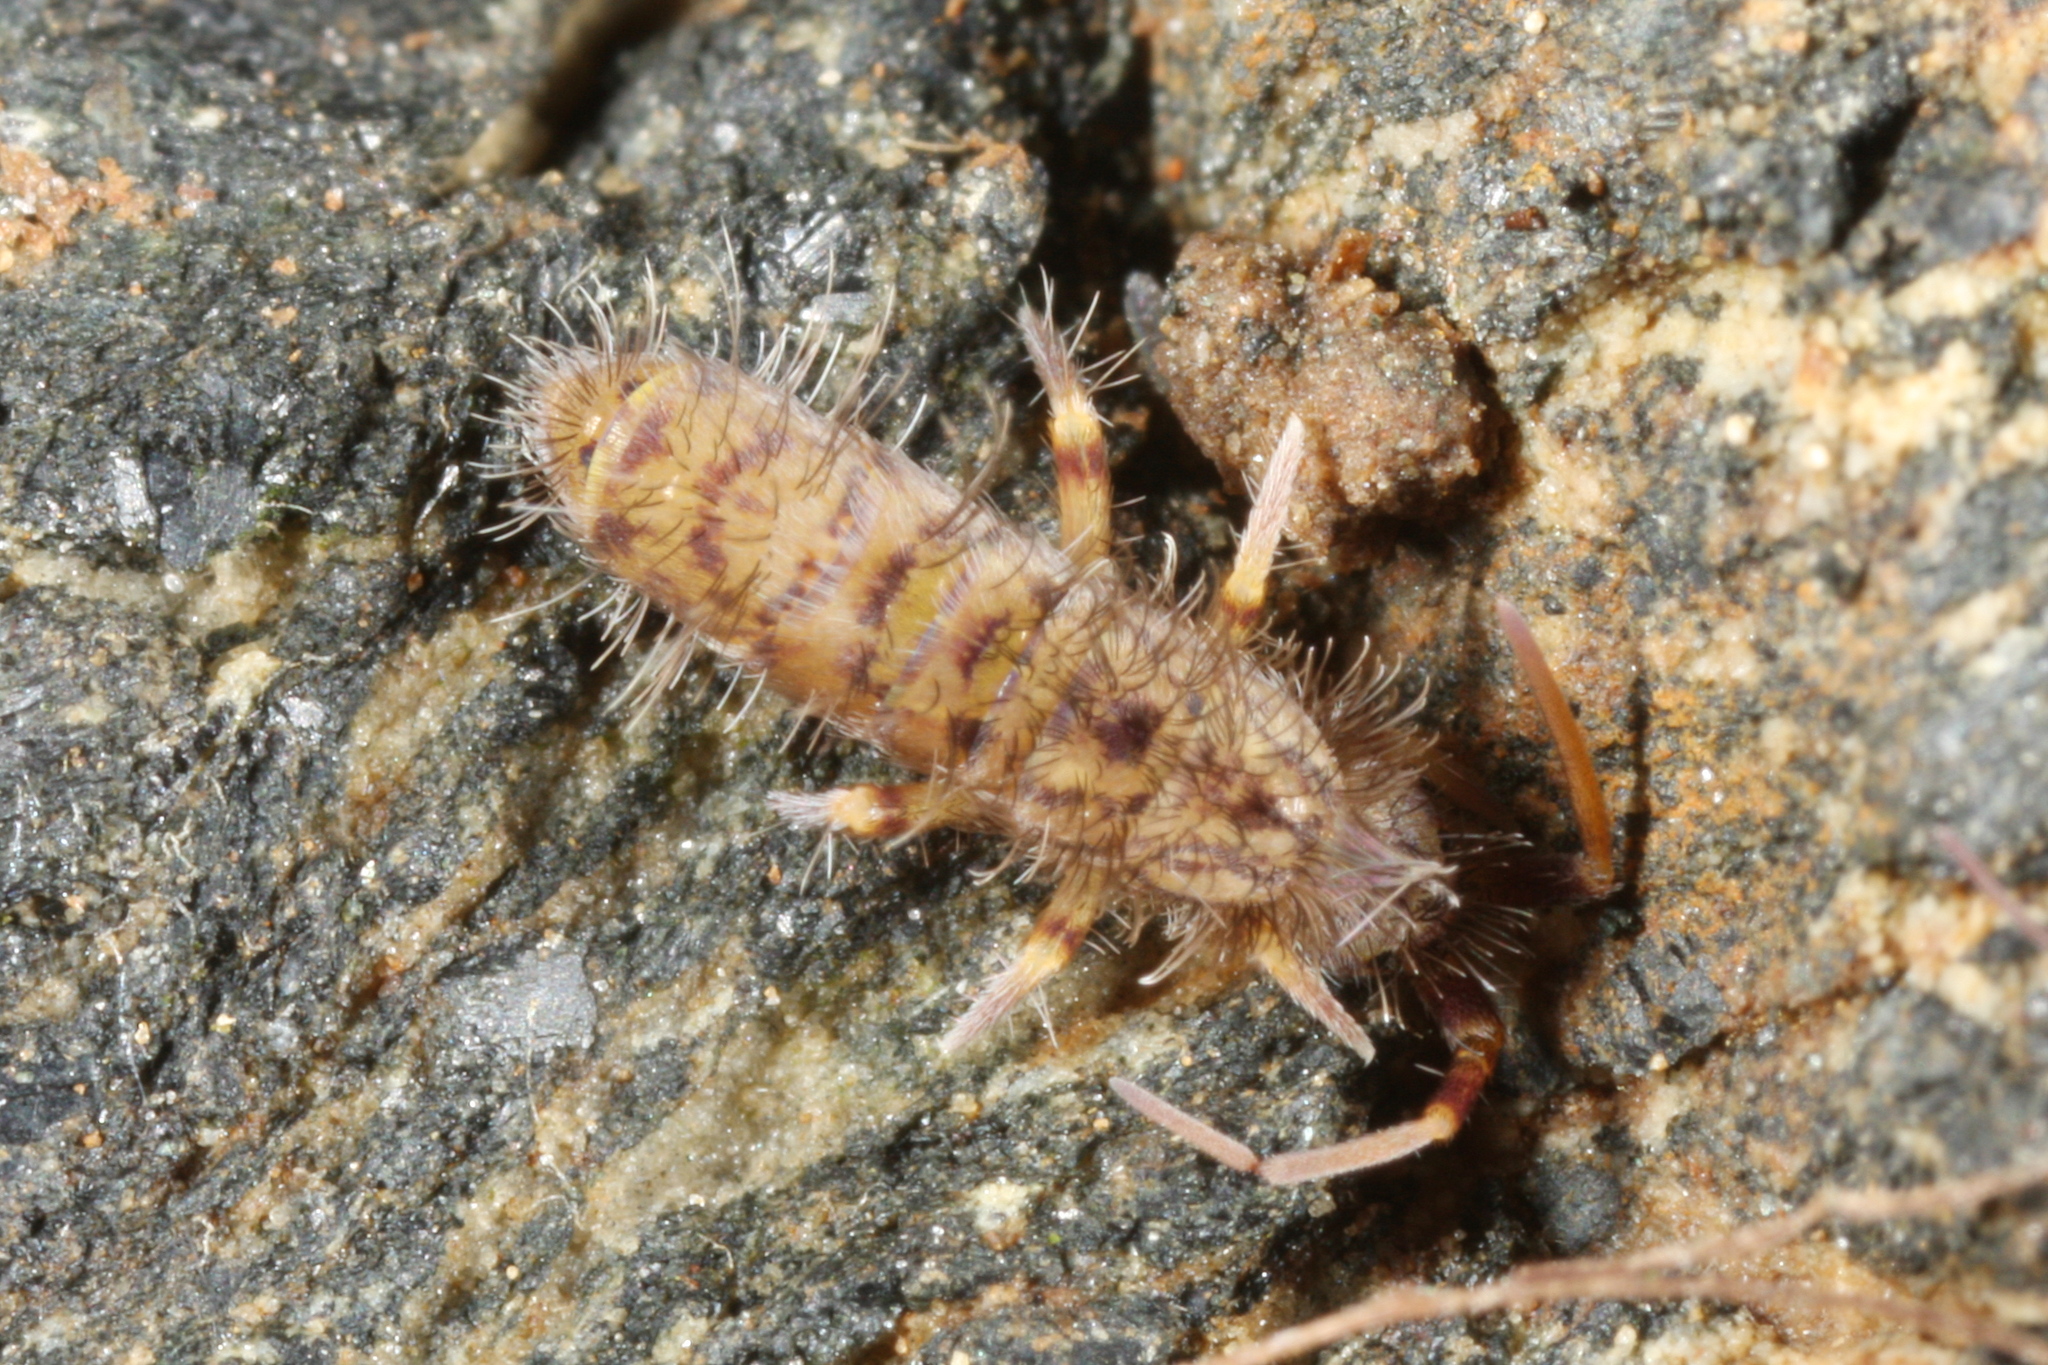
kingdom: Animalia
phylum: Arthropoda
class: Collembola
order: Entomobryomorpha
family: Orchesellidae
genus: Orchesella
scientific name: Orchesella villosa
